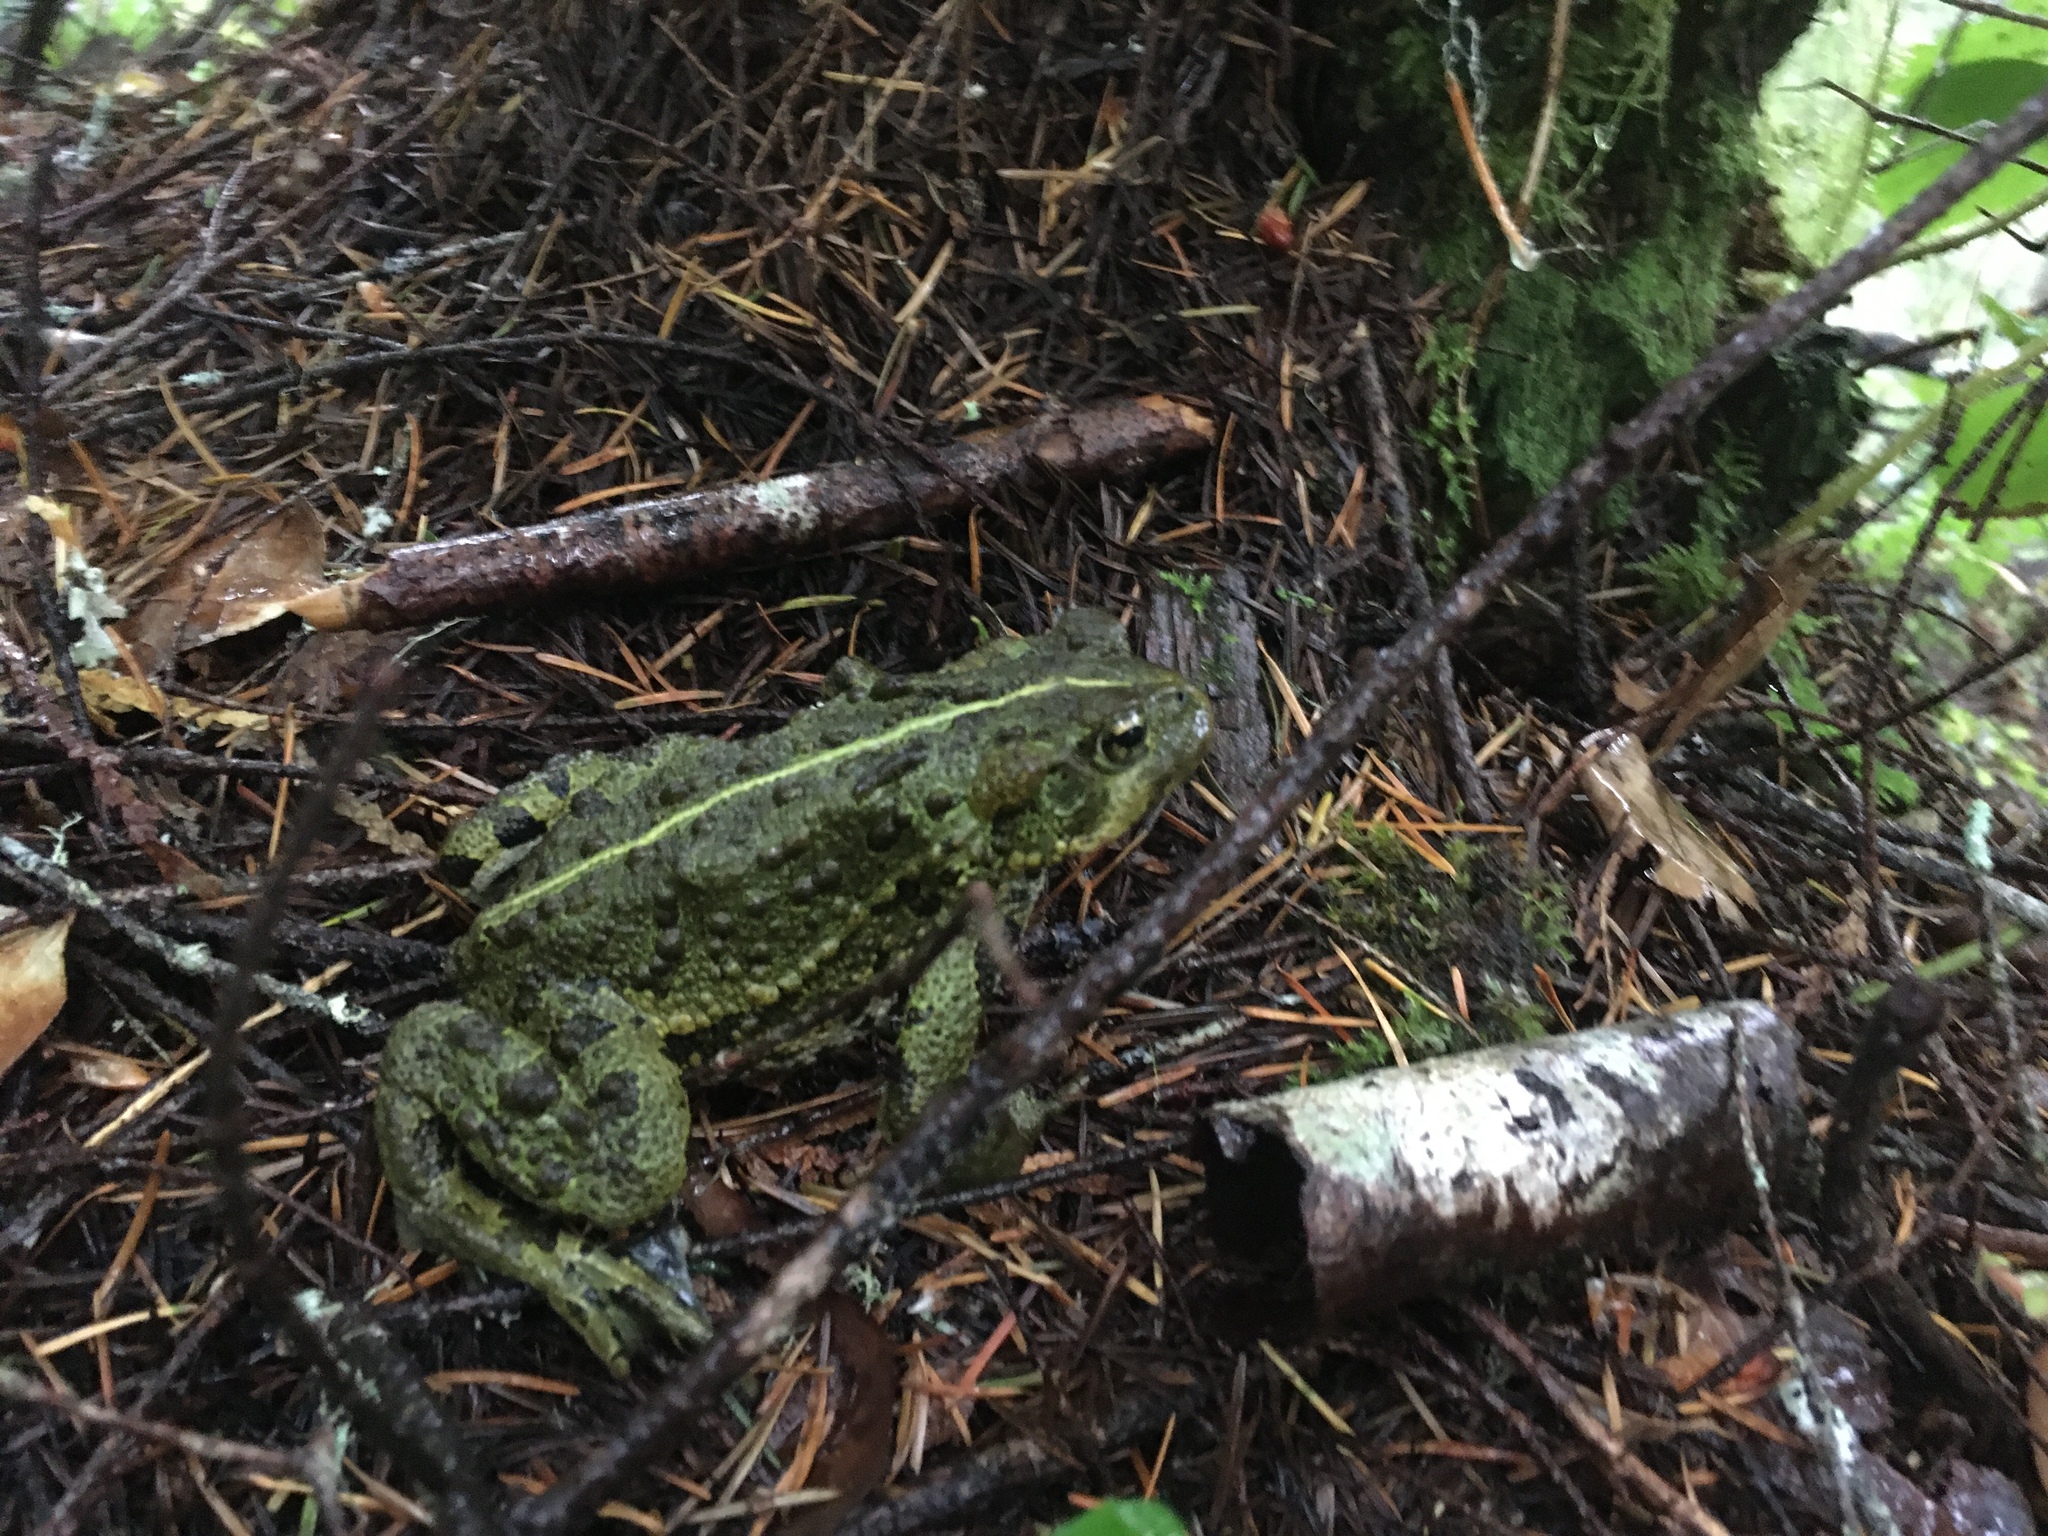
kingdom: Animalia
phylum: Chordata
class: Amphibia
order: Anura
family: Bufonidae
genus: Anaxyrus
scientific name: Anaxyrus boreas
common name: Western toad
